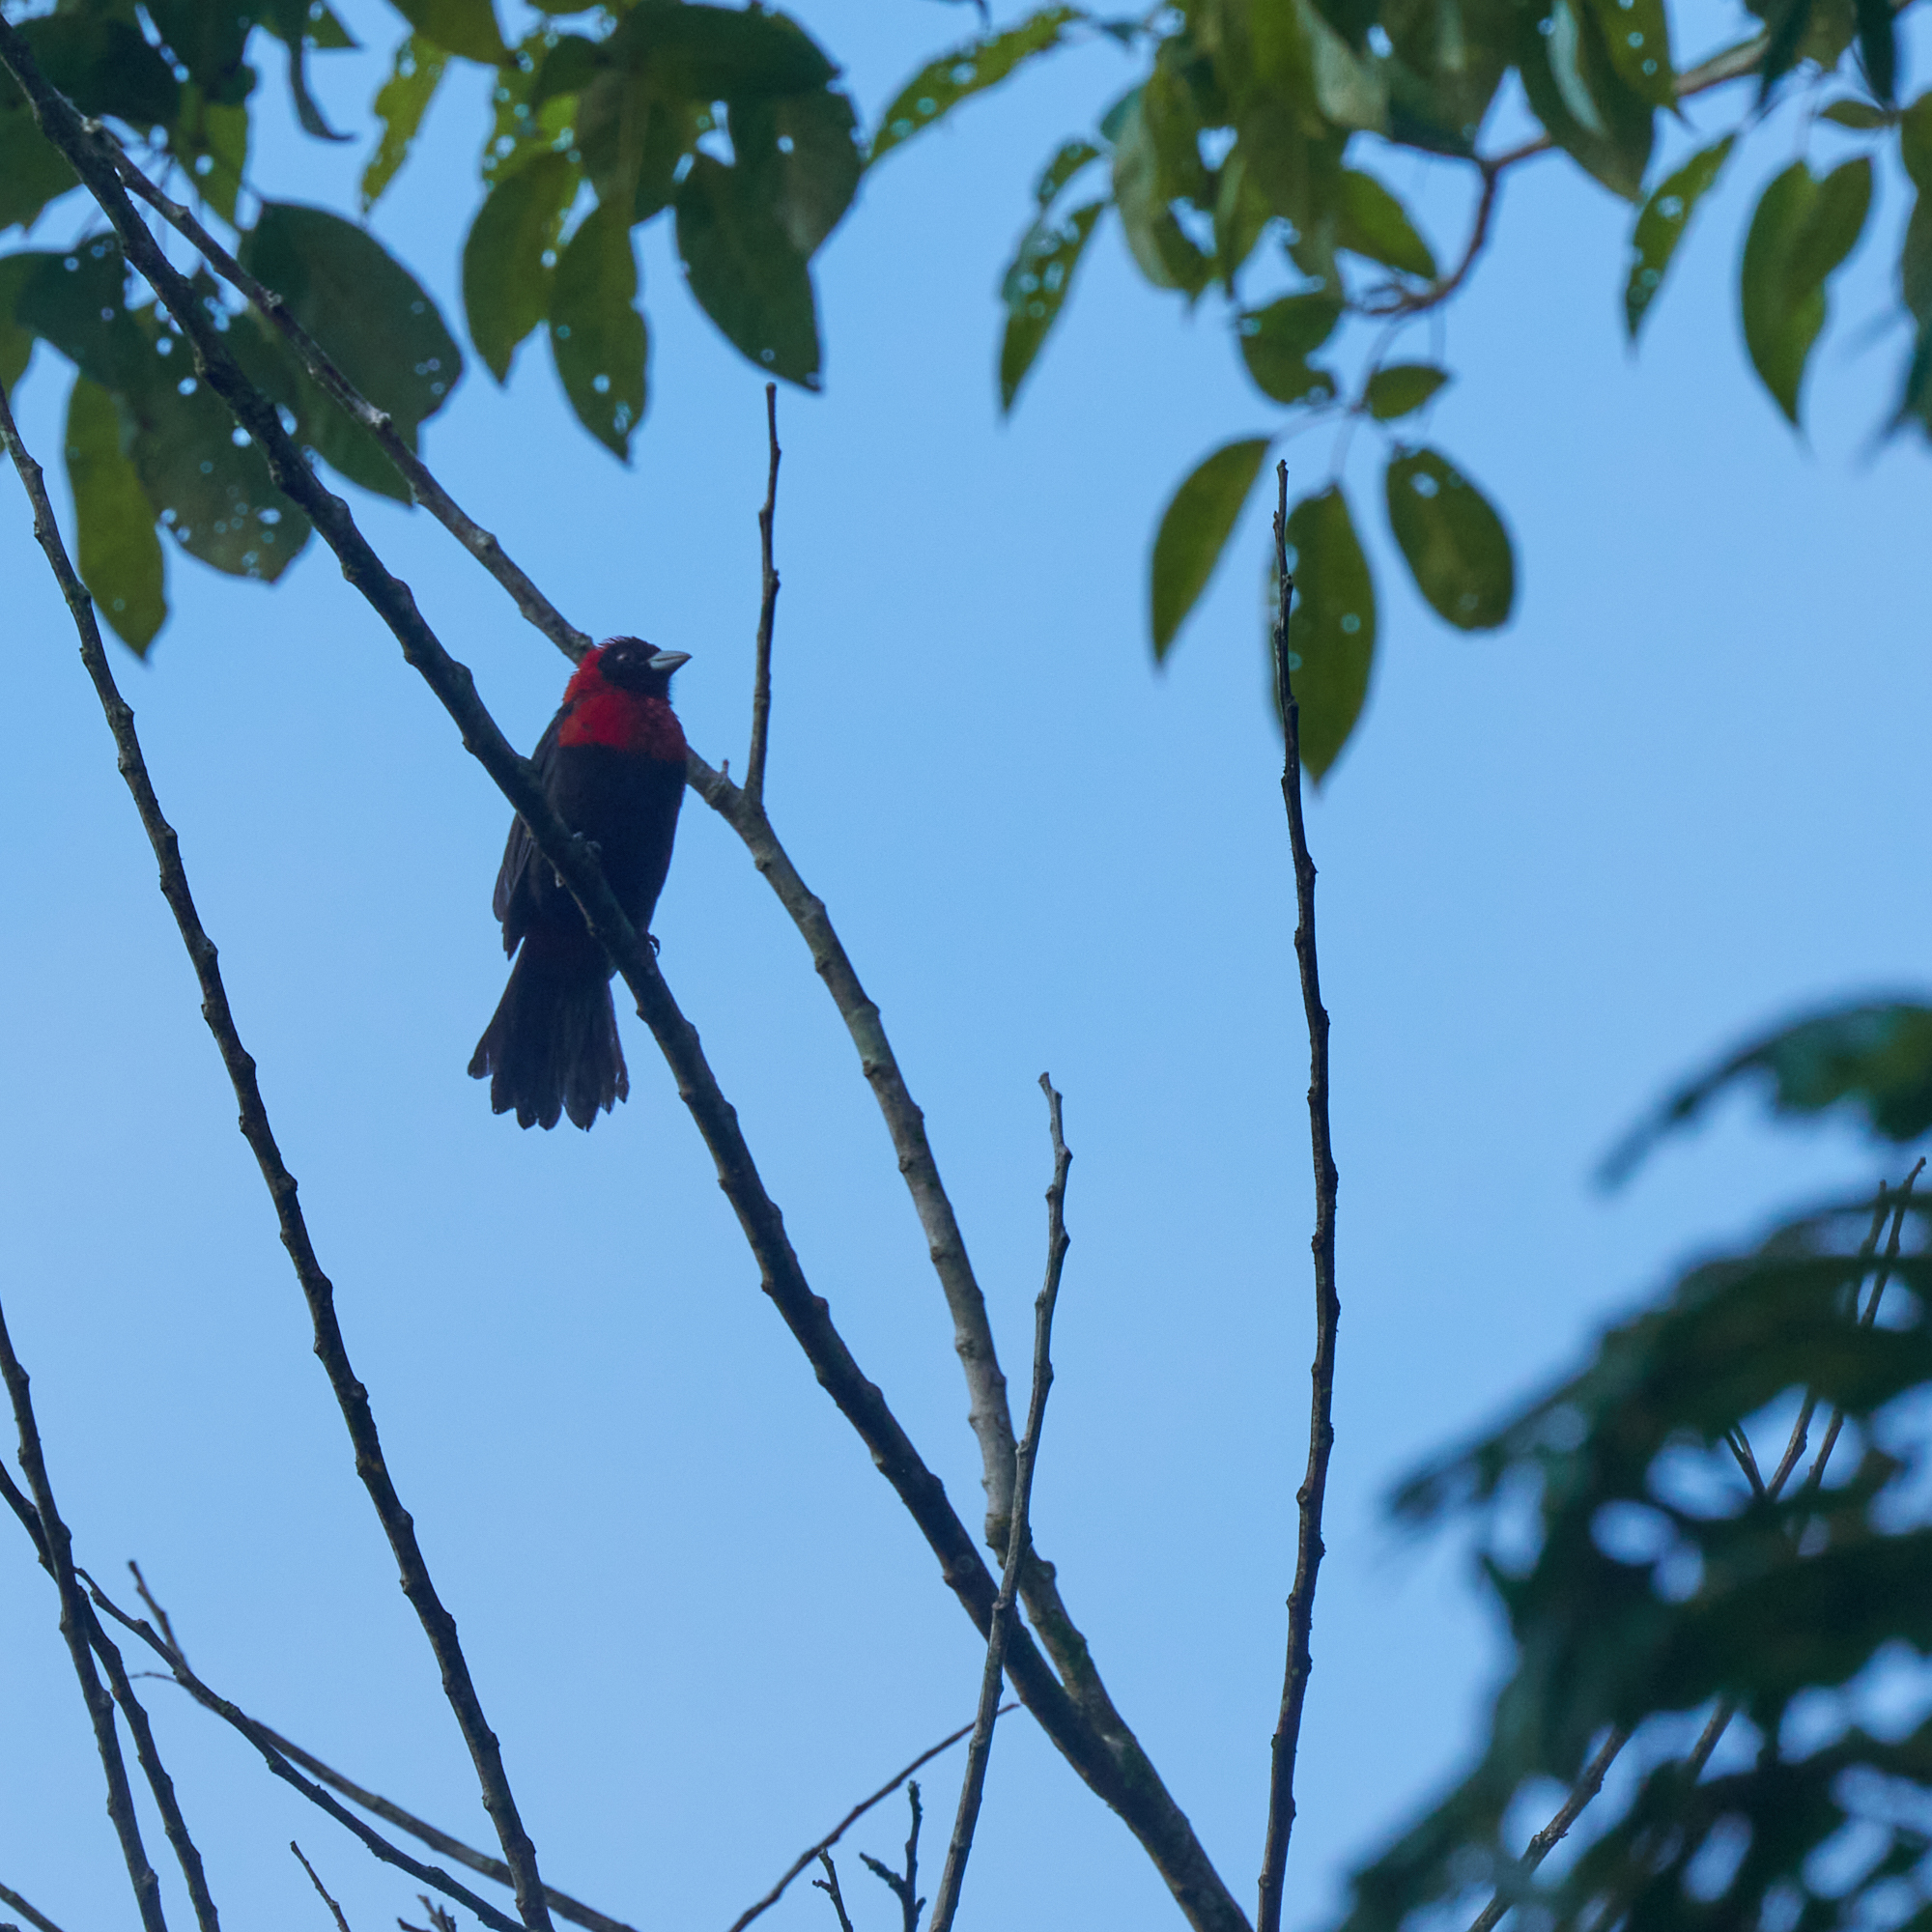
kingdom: Animalia
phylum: Chordata
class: Aves
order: Passeriformes
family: Thraupidae
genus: Ramphocelus
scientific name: Ramphocelus sanguinolentus
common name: Crimson-collared tanager
